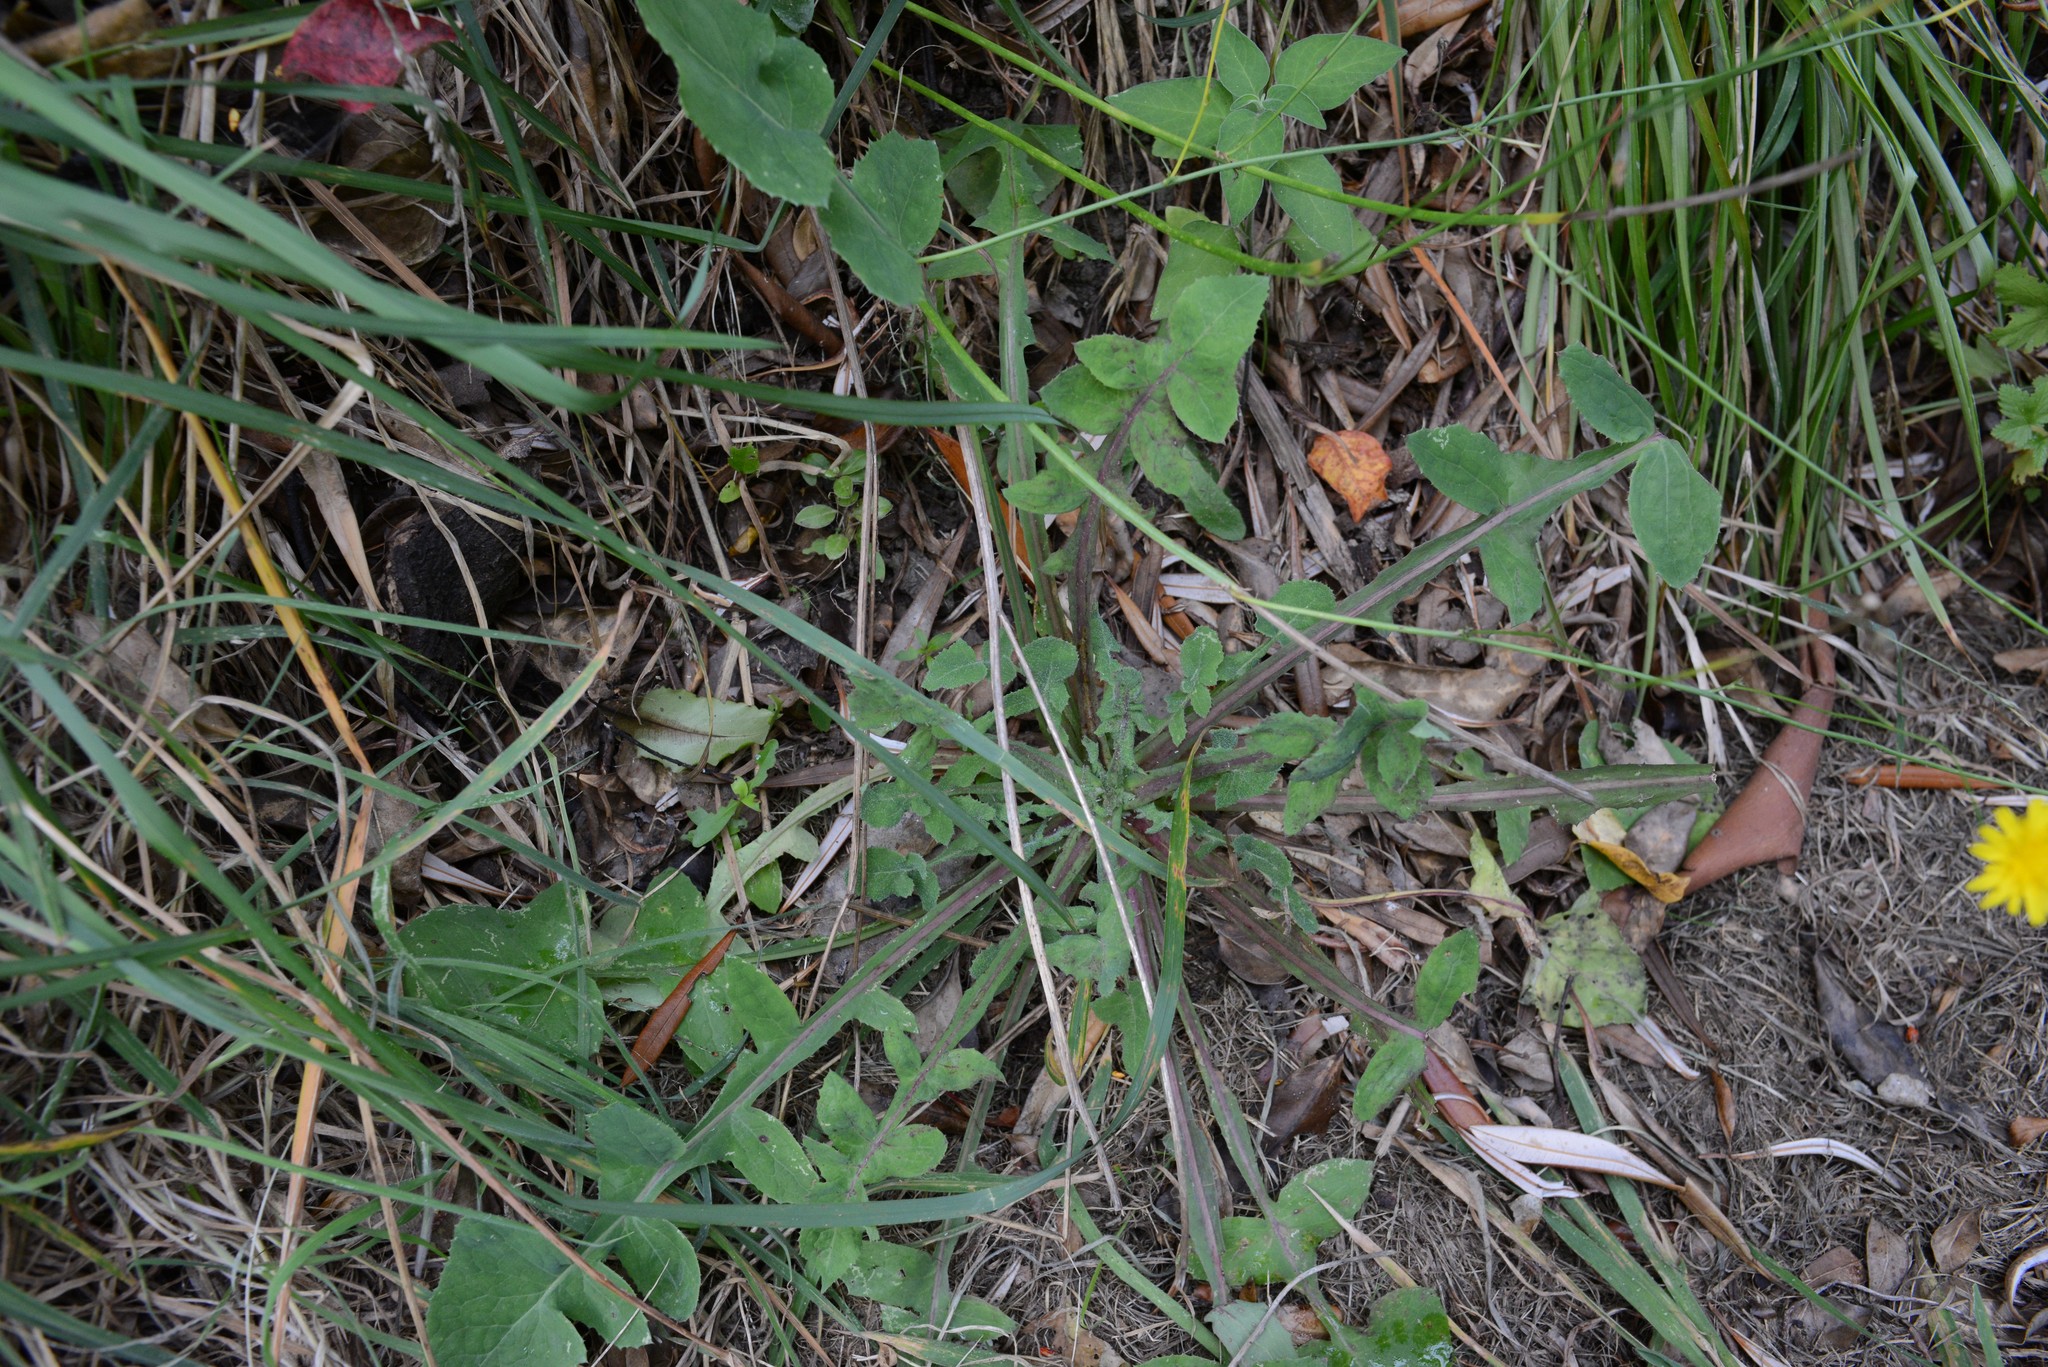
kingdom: Plantae
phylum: Tracheophyta
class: Magnoliopsida
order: Asterales
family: Asteraceae
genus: Sonchus
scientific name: Sonchus oleraceus
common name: Common sowthistle
